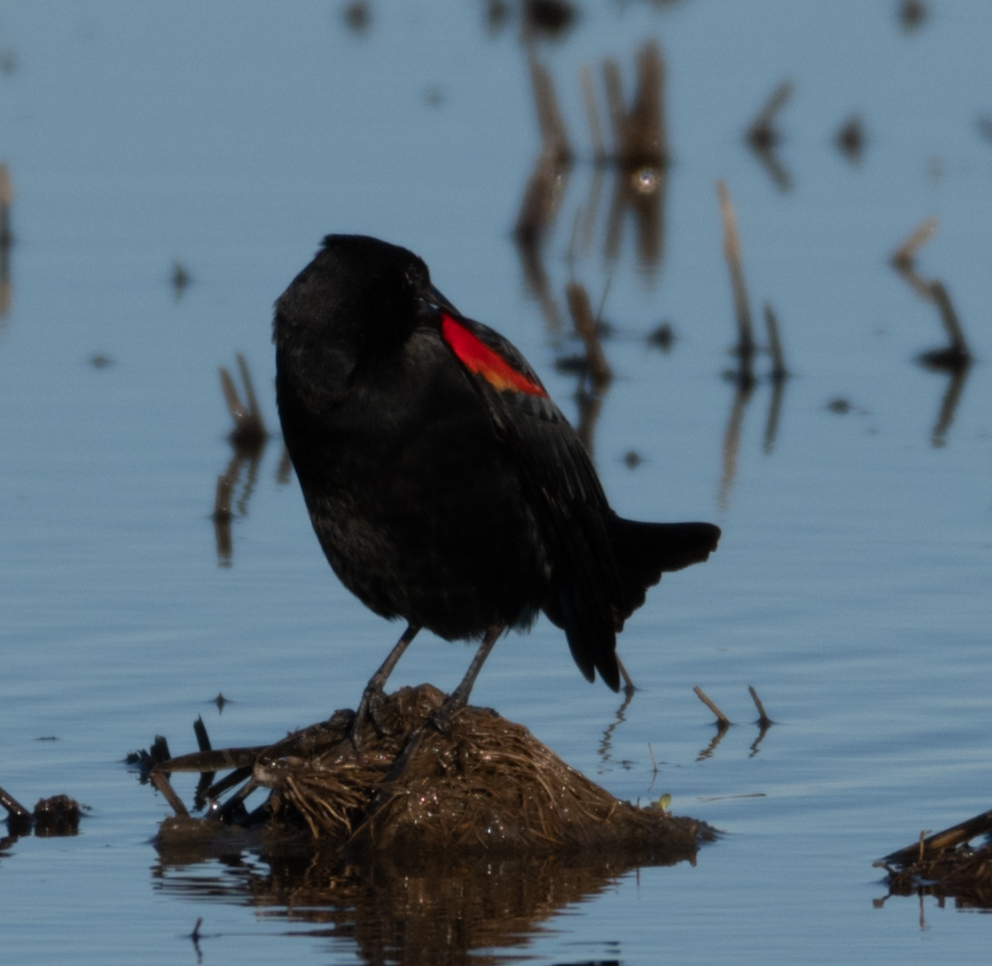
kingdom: Animalia
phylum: Chordata
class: Aves
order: Passeriformes
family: Icteridae
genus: Agelaius
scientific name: Agelaius phoeniceus
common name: Red-winged blackbird
